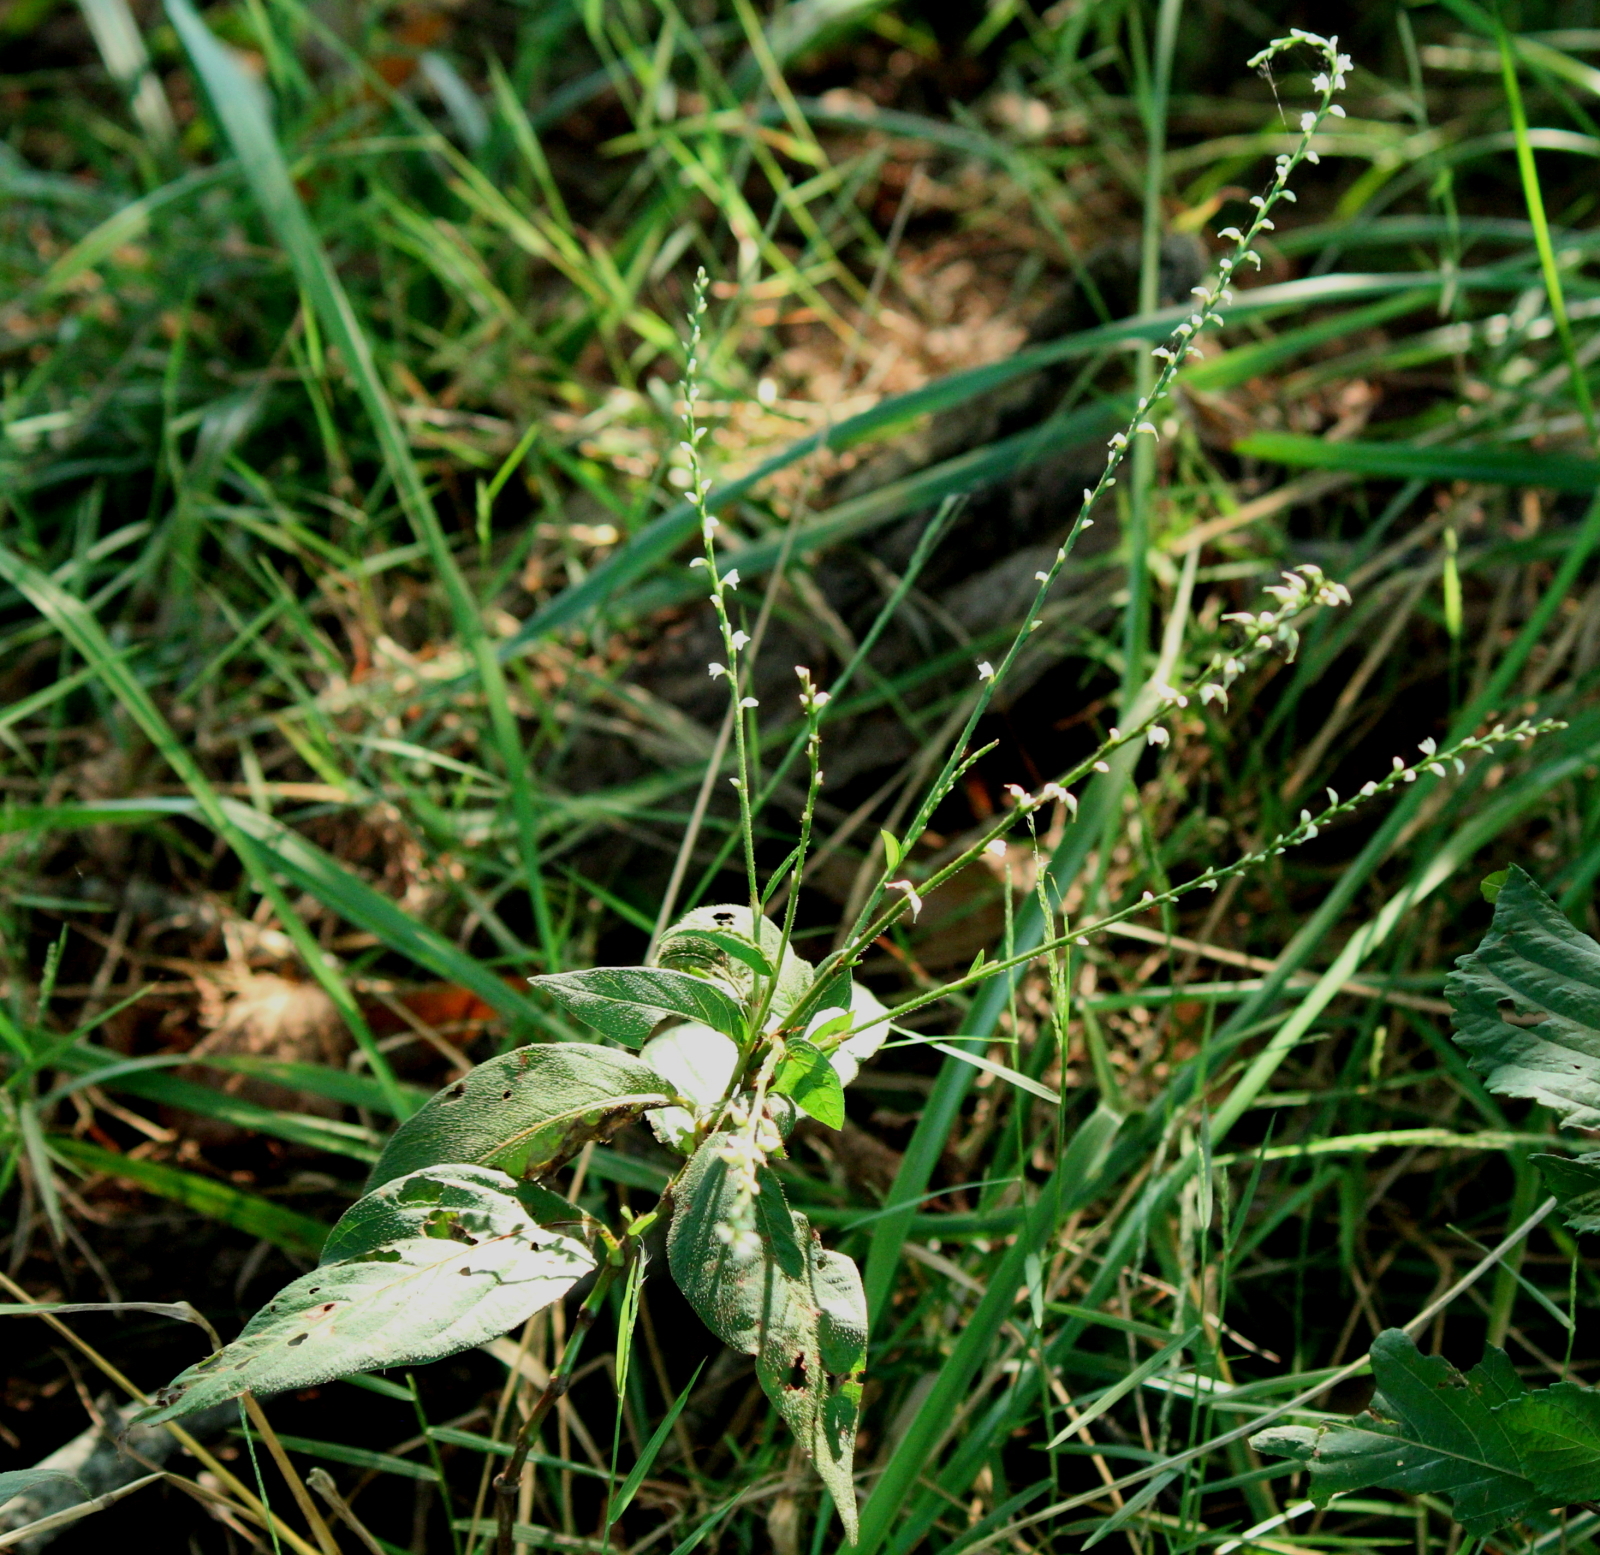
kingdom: Plantae
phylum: Tracheophyta
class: Magnoliopsida
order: Caryophyllales
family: Polygonaceae
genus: Persicaria
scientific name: Persicaria virginiana
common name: Jumpseed
